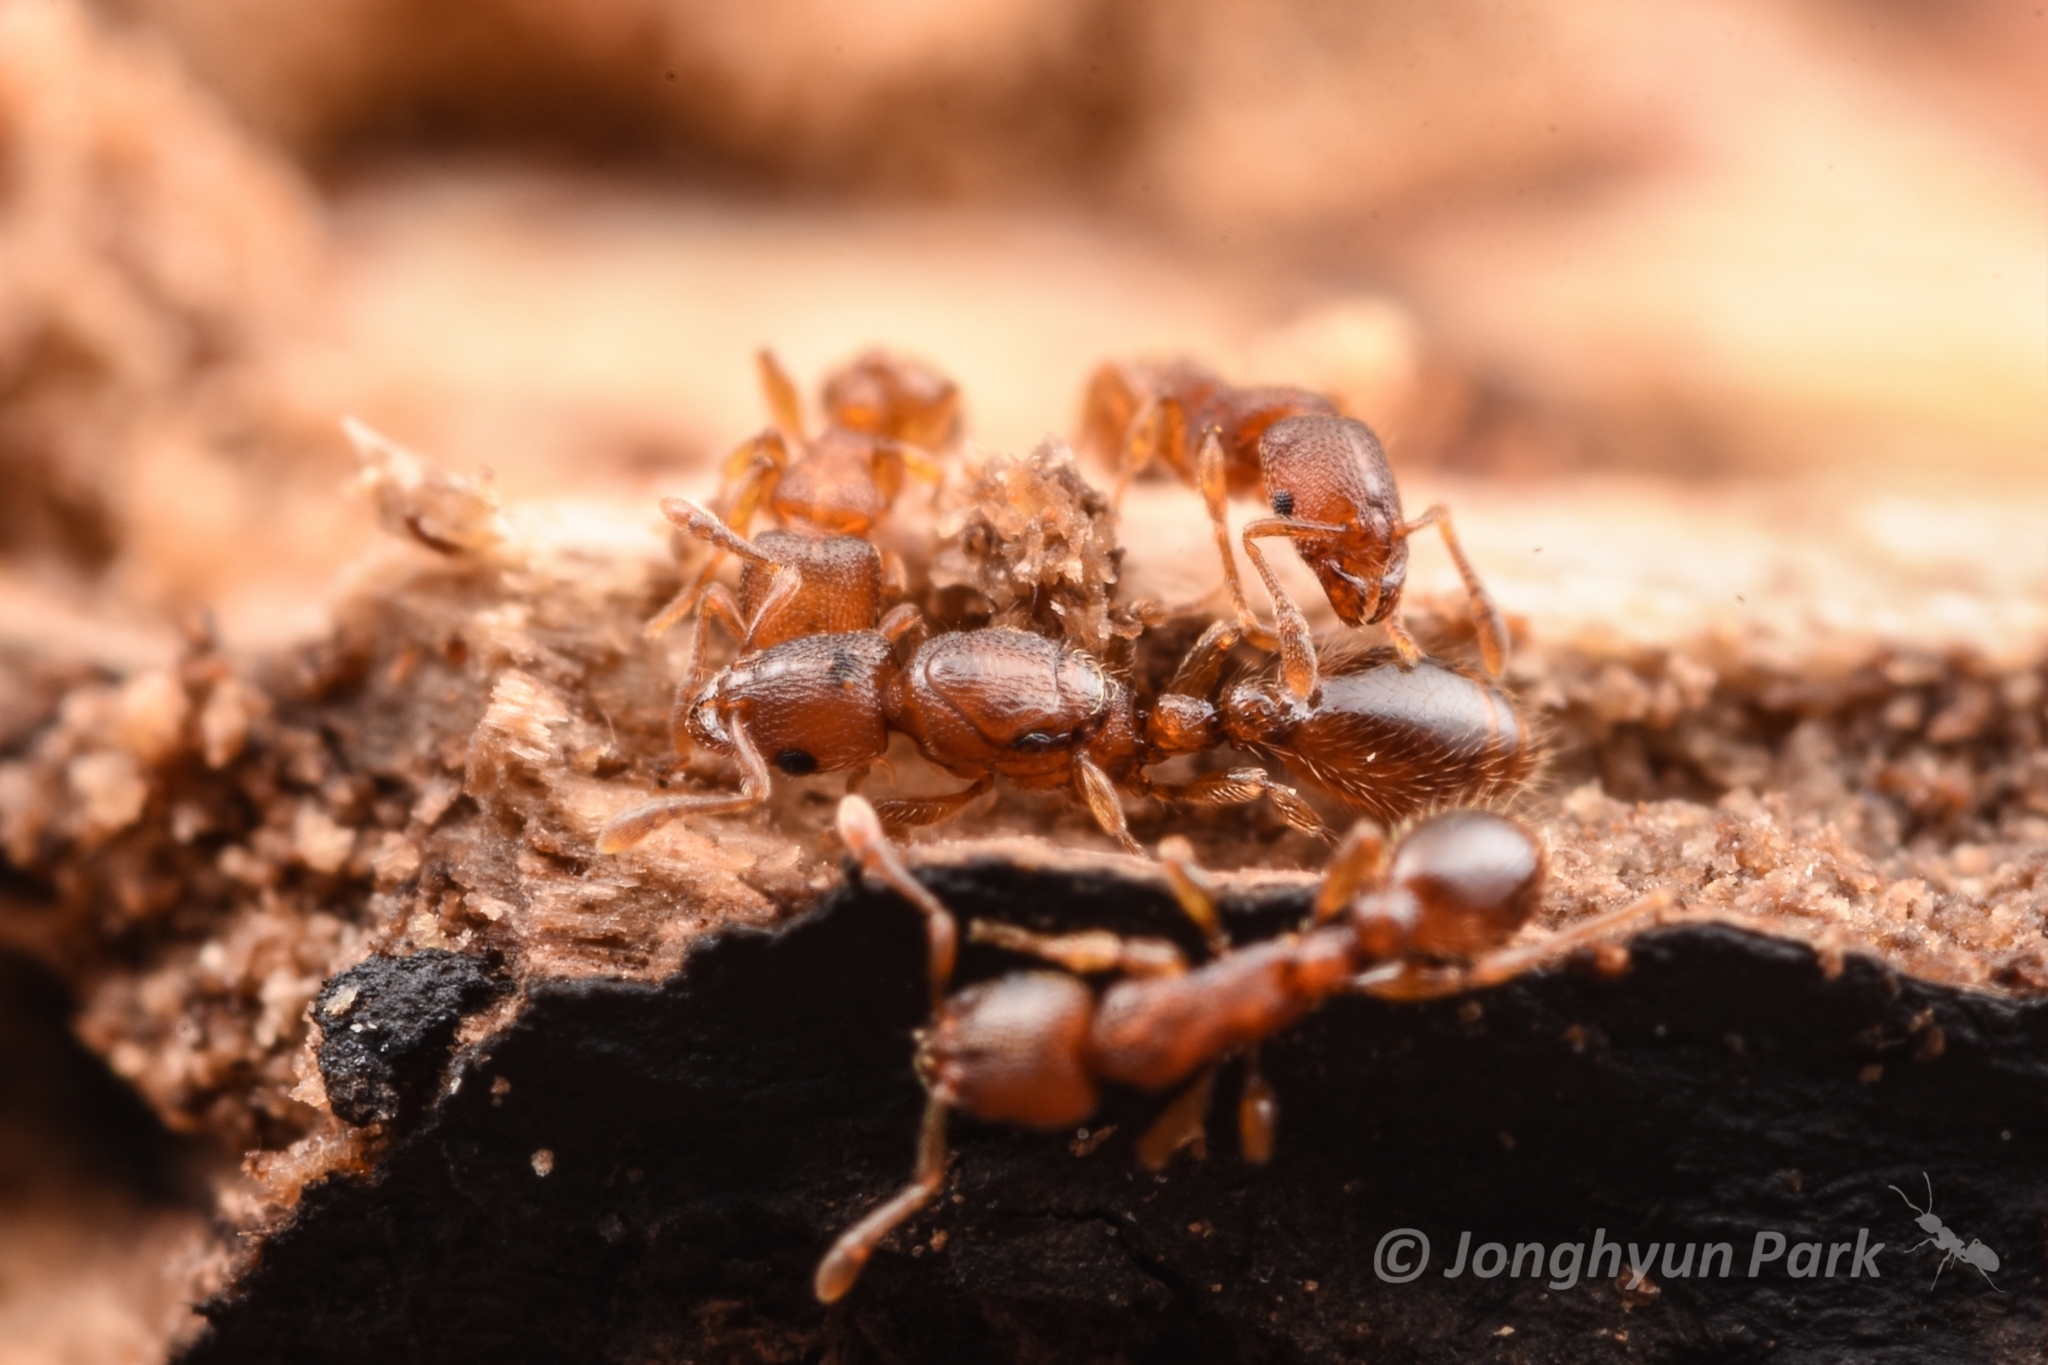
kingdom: Animalia
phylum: Arthropoda
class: Insecta
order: Hymenoptera
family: Formicidae
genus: Vollenhovia
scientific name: Vollenhovia emeryi
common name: Ant
